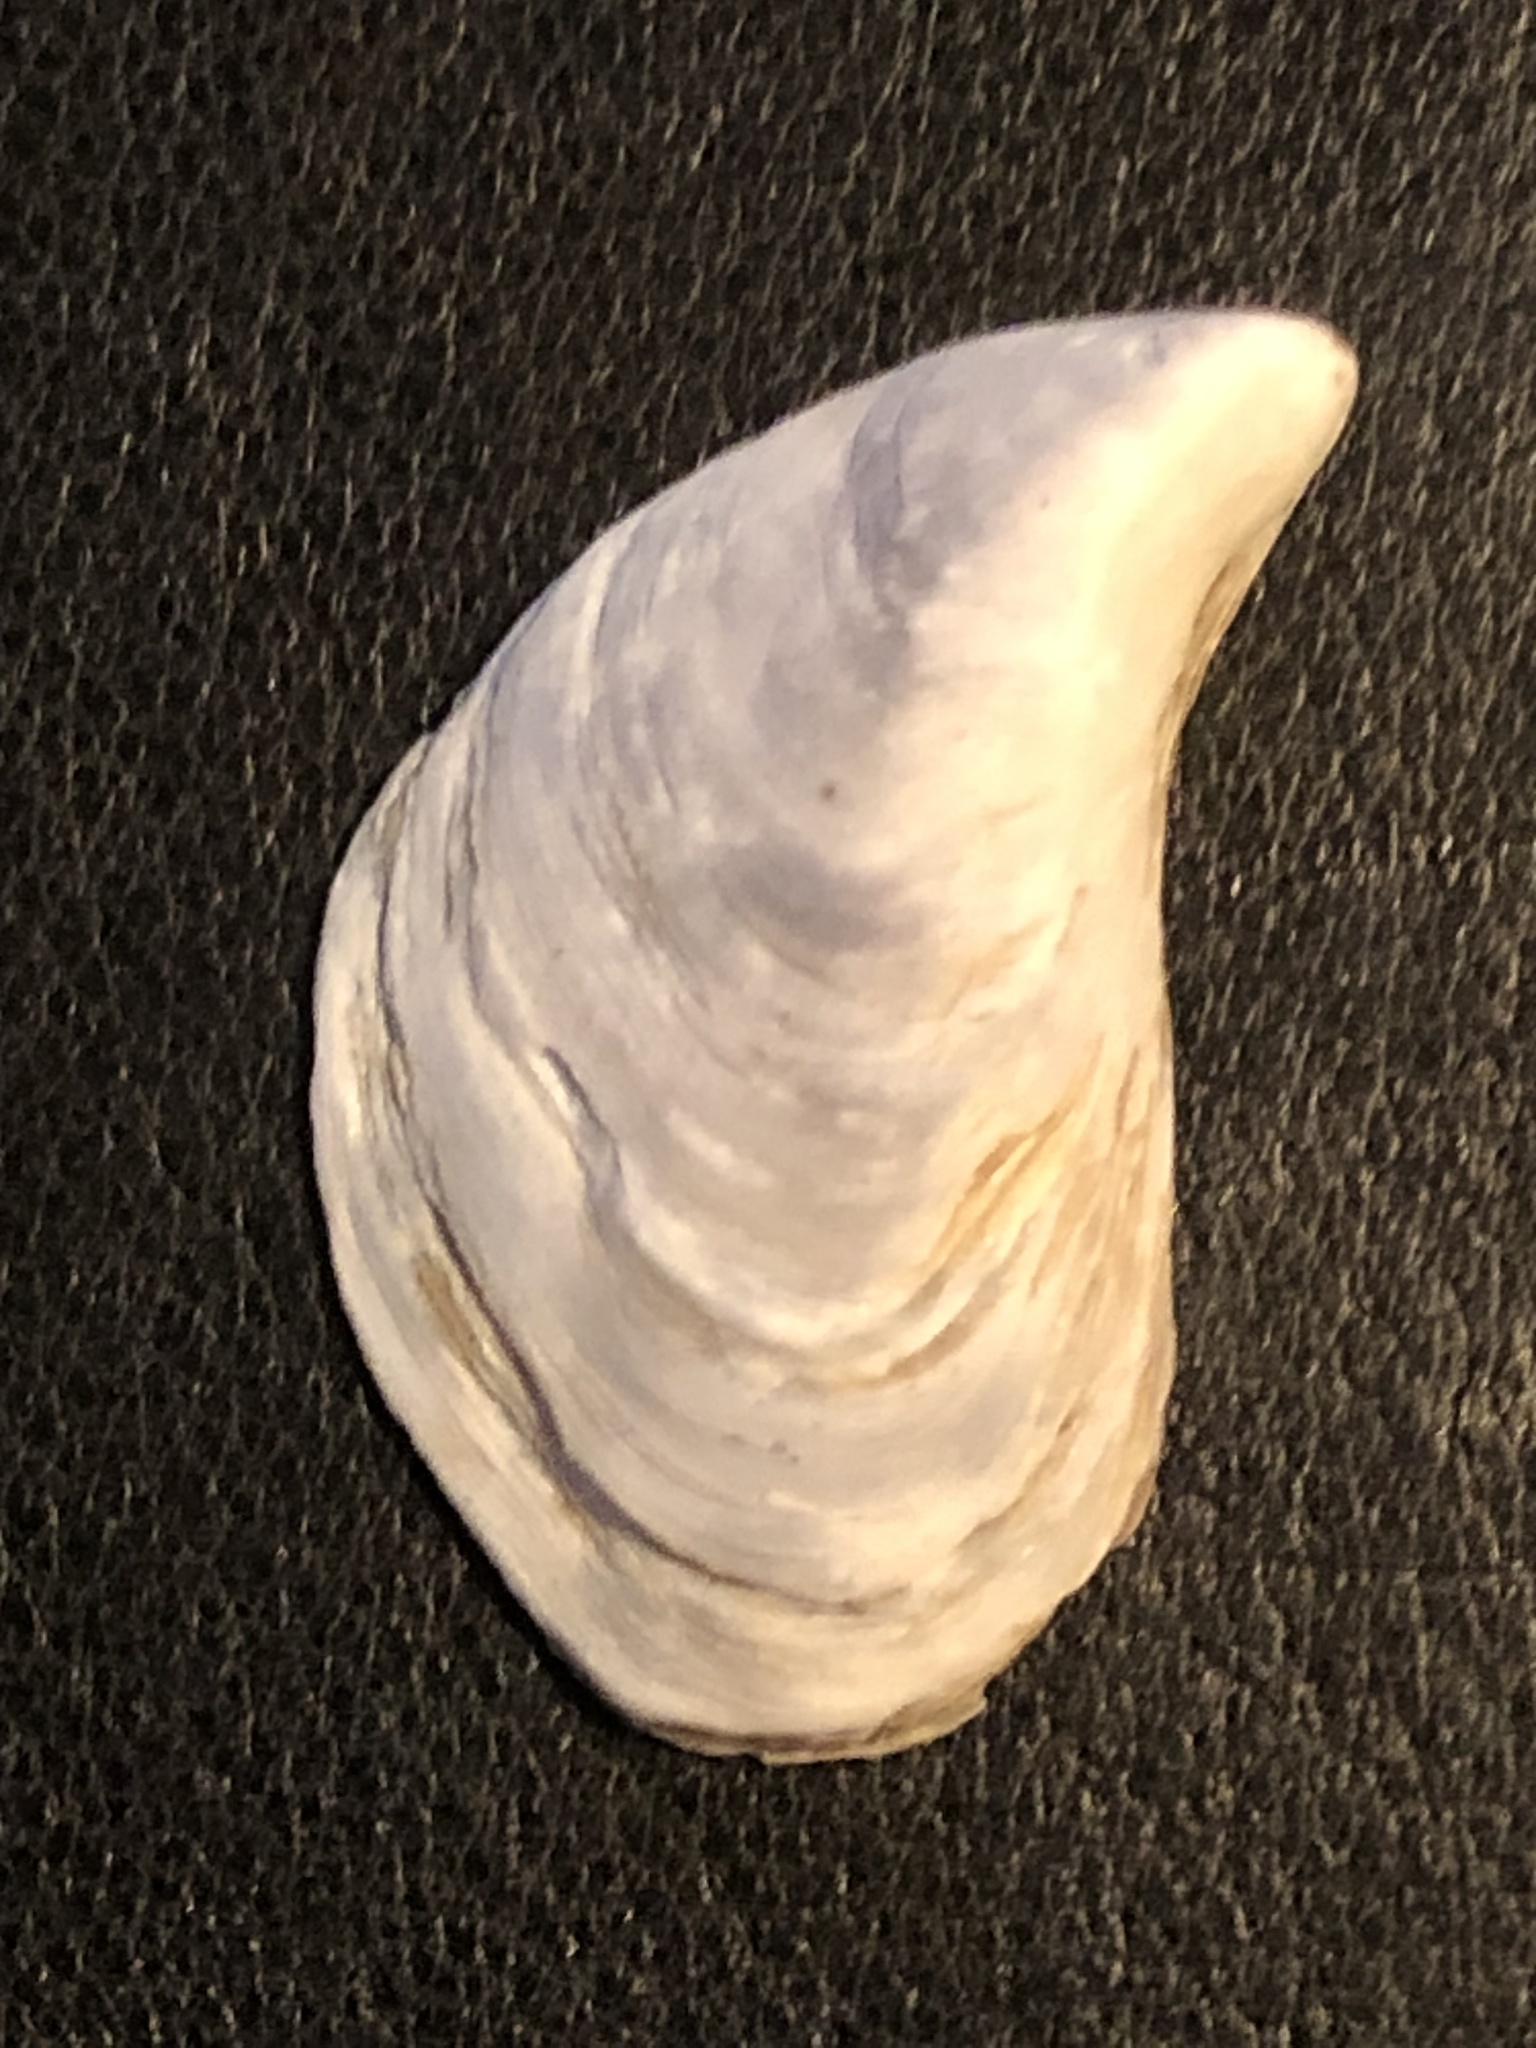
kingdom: Animalia
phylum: Mollusca
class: Bivalvia
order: Myida
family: Dreissenidae
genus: Dreissena
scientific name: Dreissena bugensis
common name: Quagga mussel
